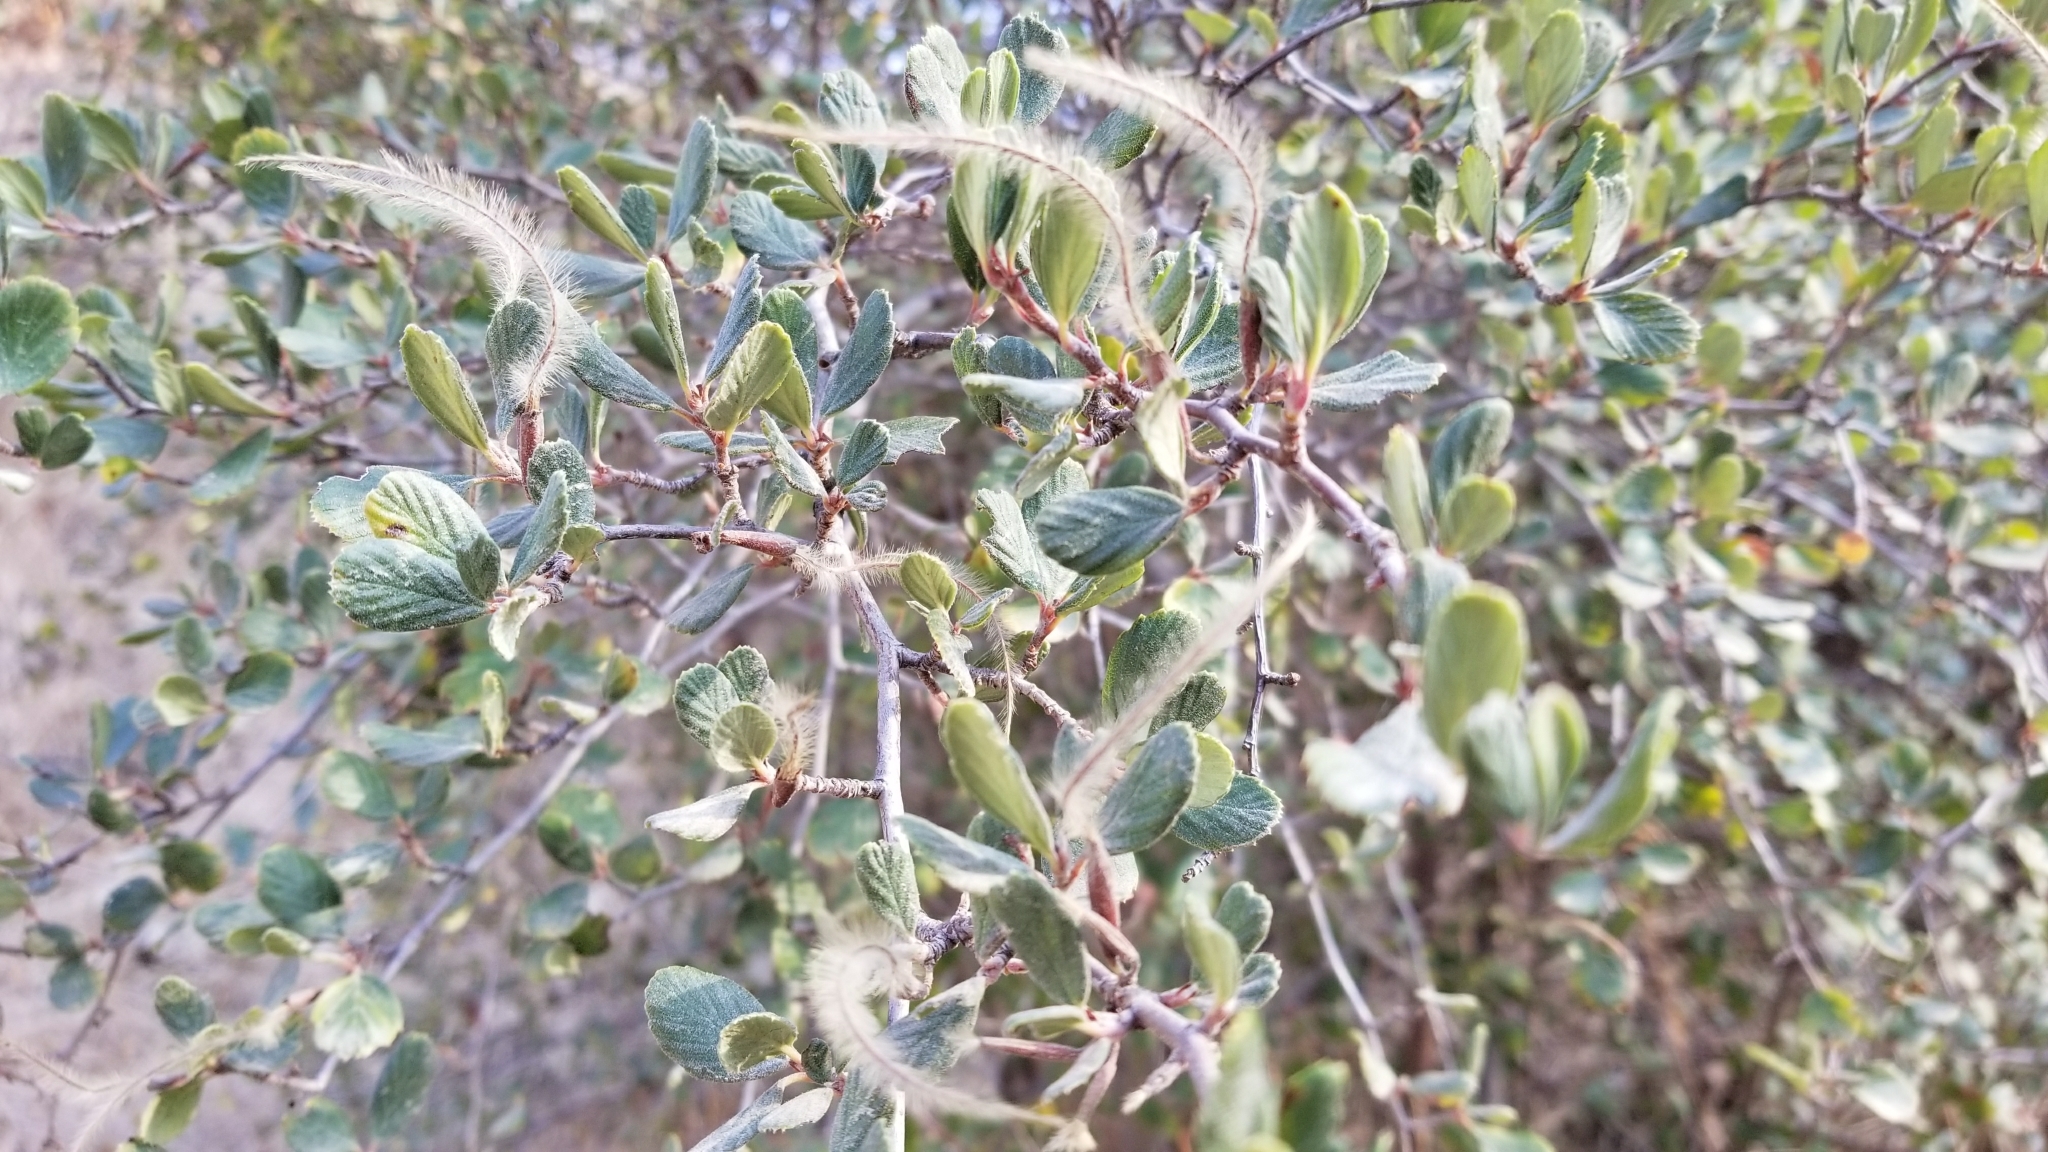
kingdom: Plantae
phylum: Tracheophyta
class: Magnoliopsida
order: Rosales
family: Rosaceae
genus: Cercocarpus
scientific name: Cercocarpus betuloides
